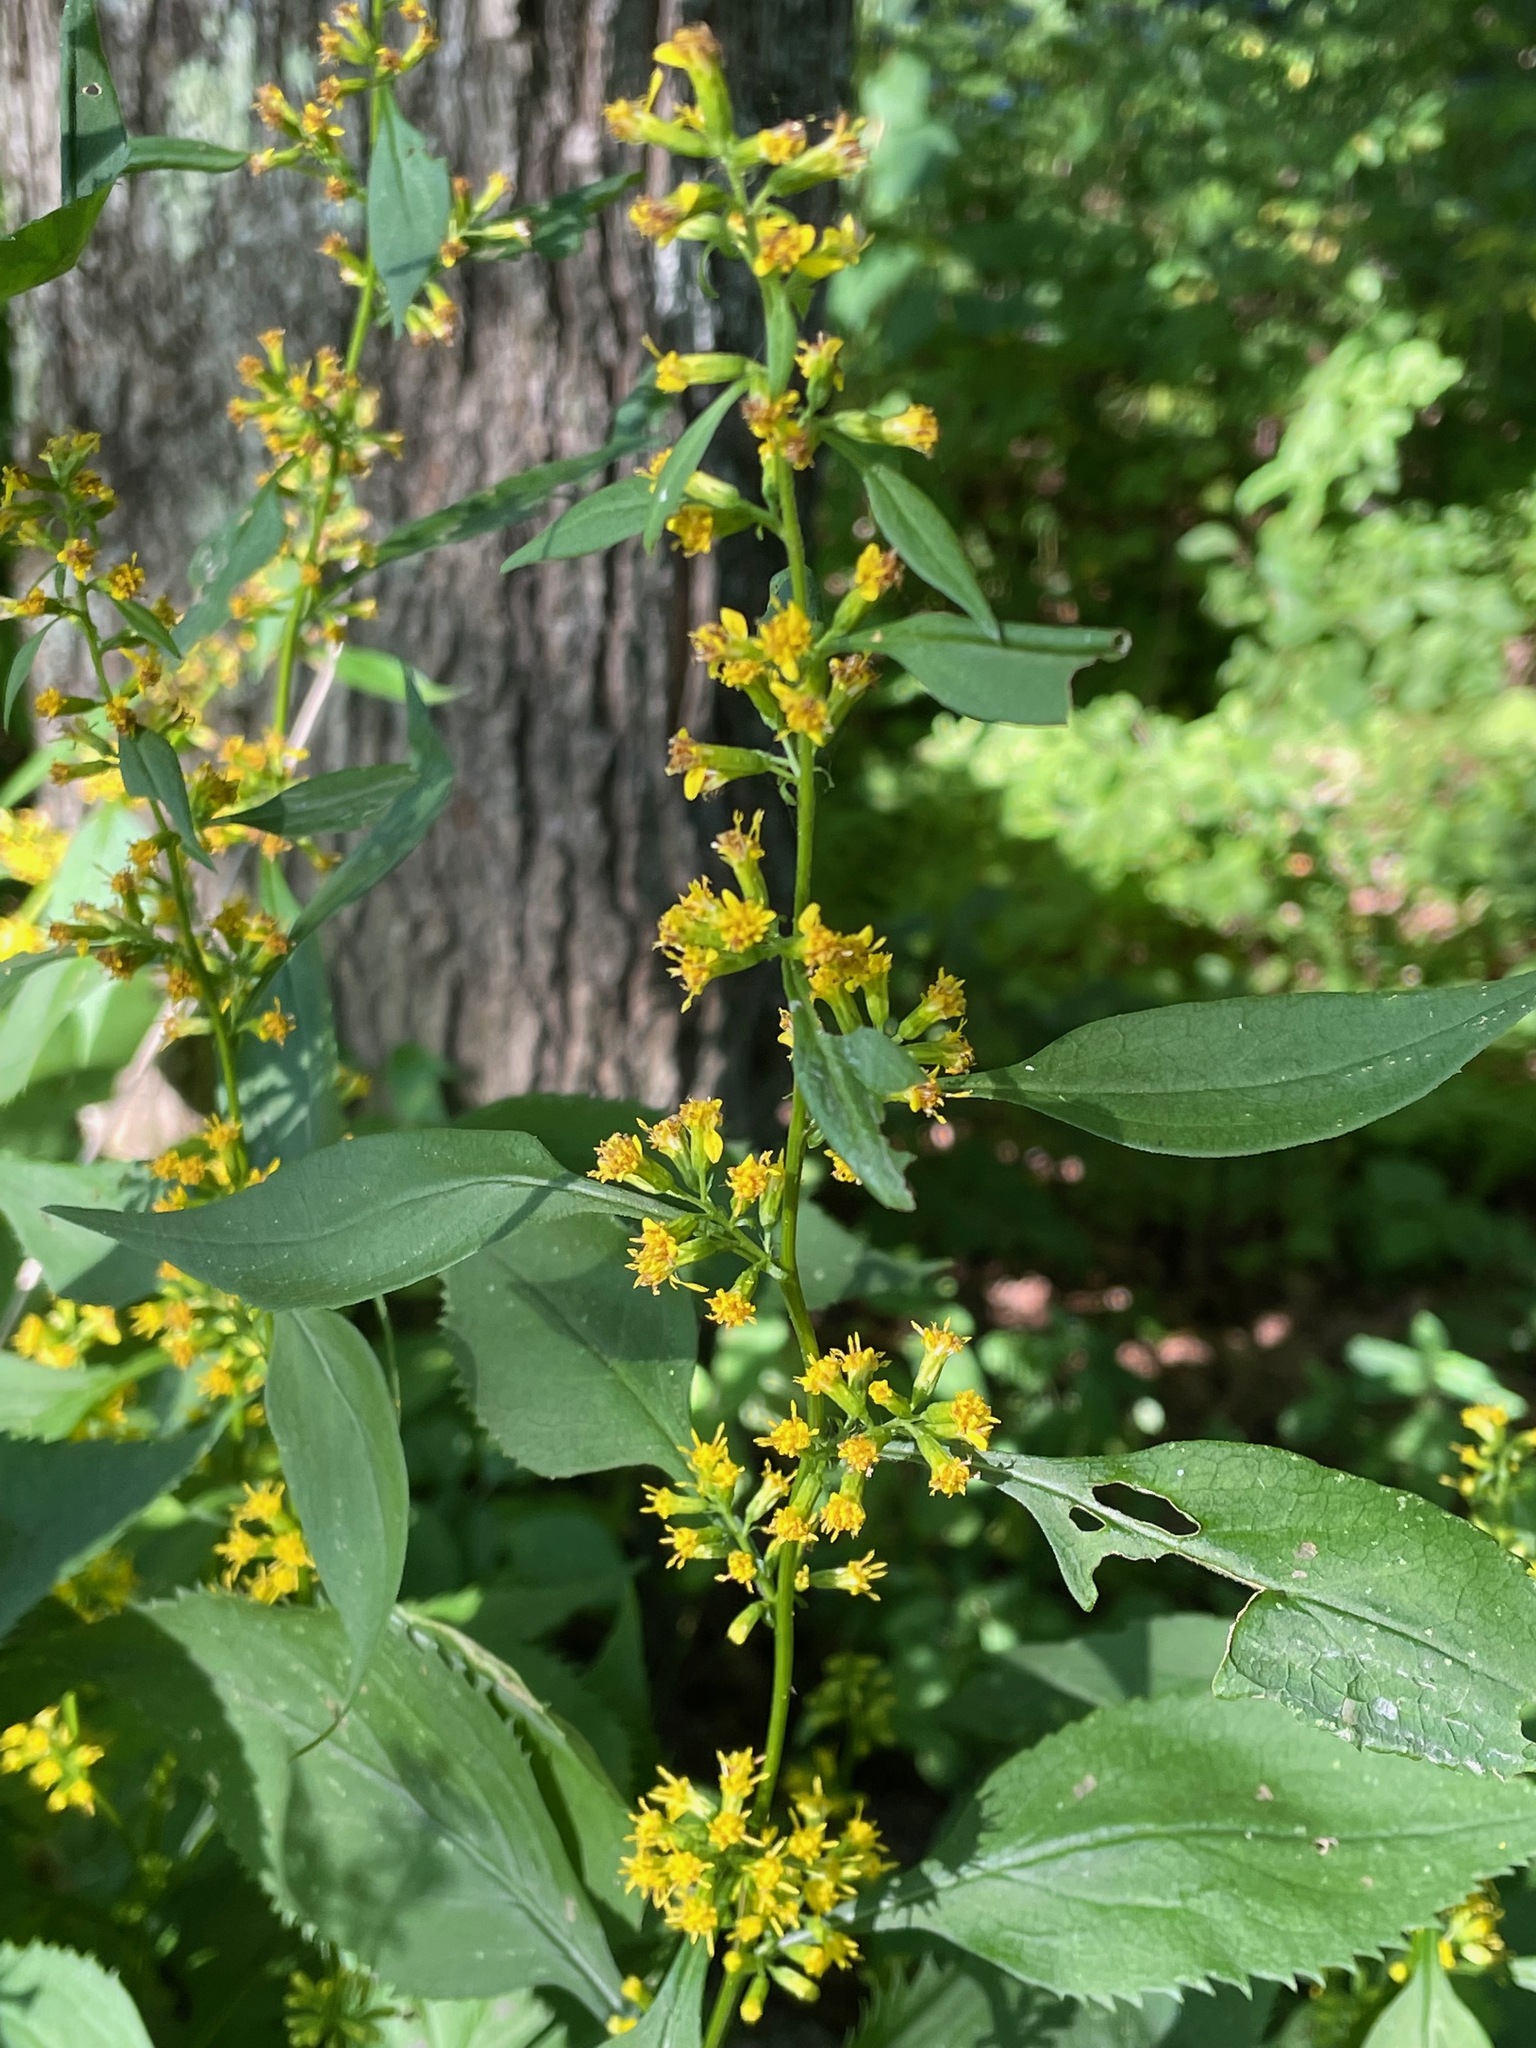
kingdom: Plantae
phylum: Tracheophyta
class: Magnoliopsida
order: Asterales
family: Asteraceae
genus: Solidago
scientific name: Solidago flexicaulis
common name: Zig-zag goldenrod
